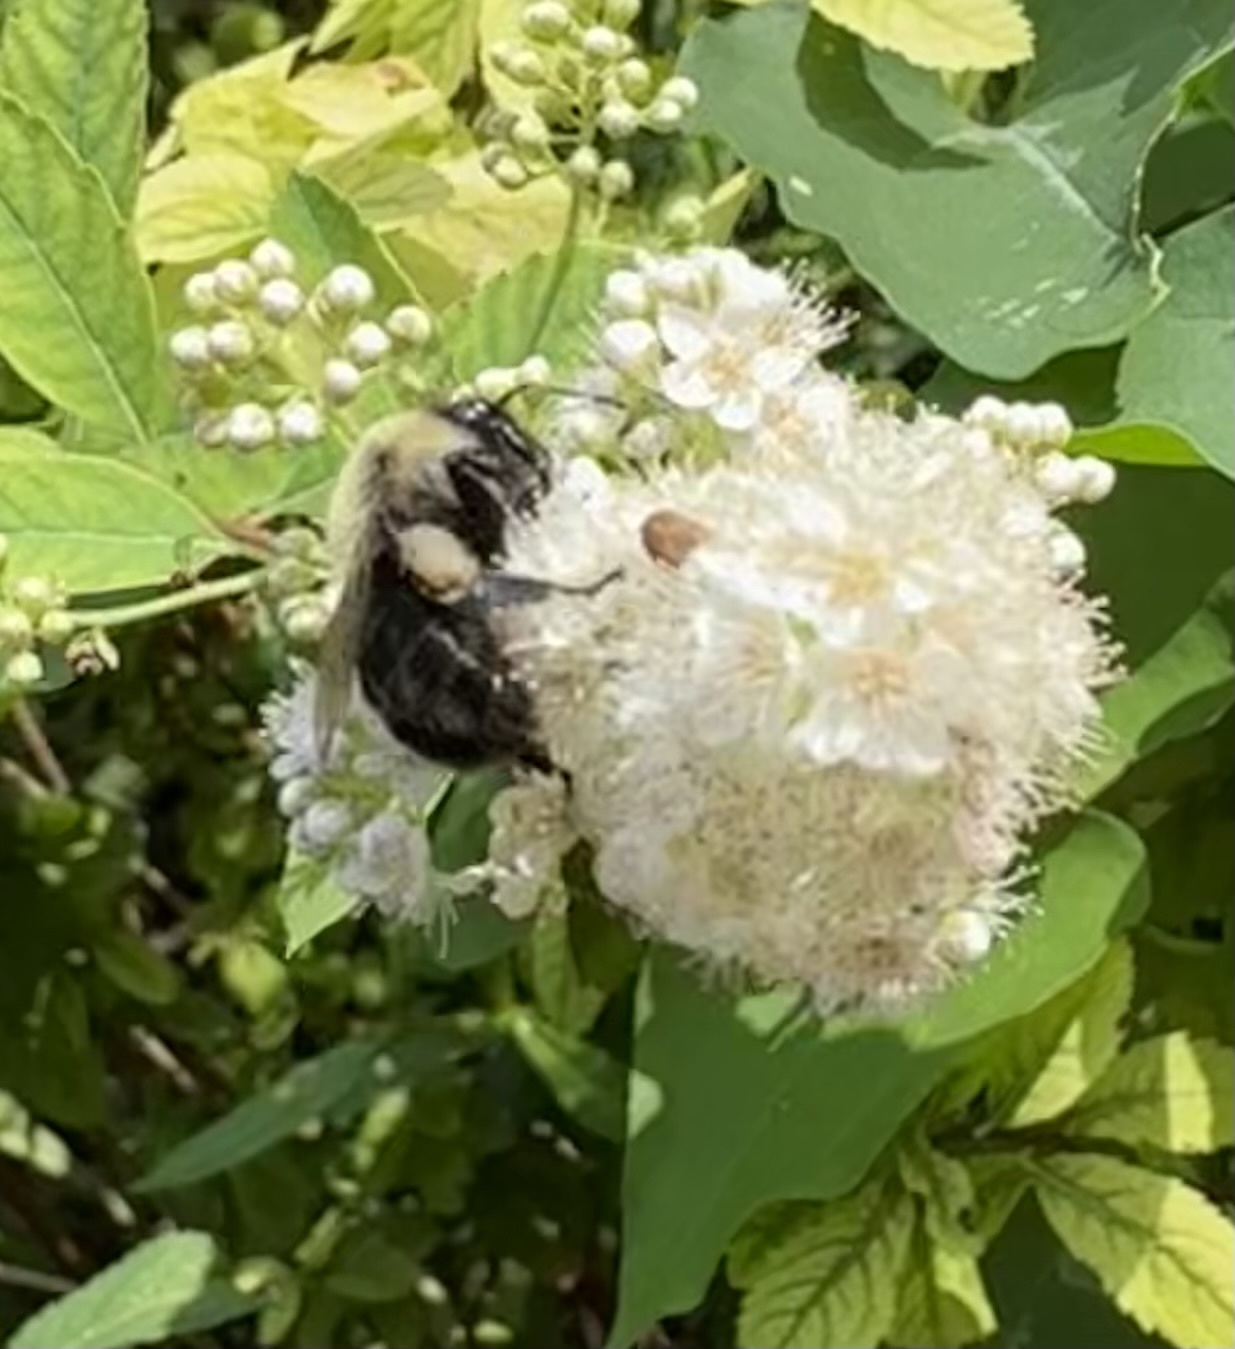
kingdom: Animalia
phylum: Arthropoda
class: Insecta
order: Hymenoptera
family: Apidae
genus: Bombus
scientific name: Bombus impatiens
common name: Common eastern bumble bee
